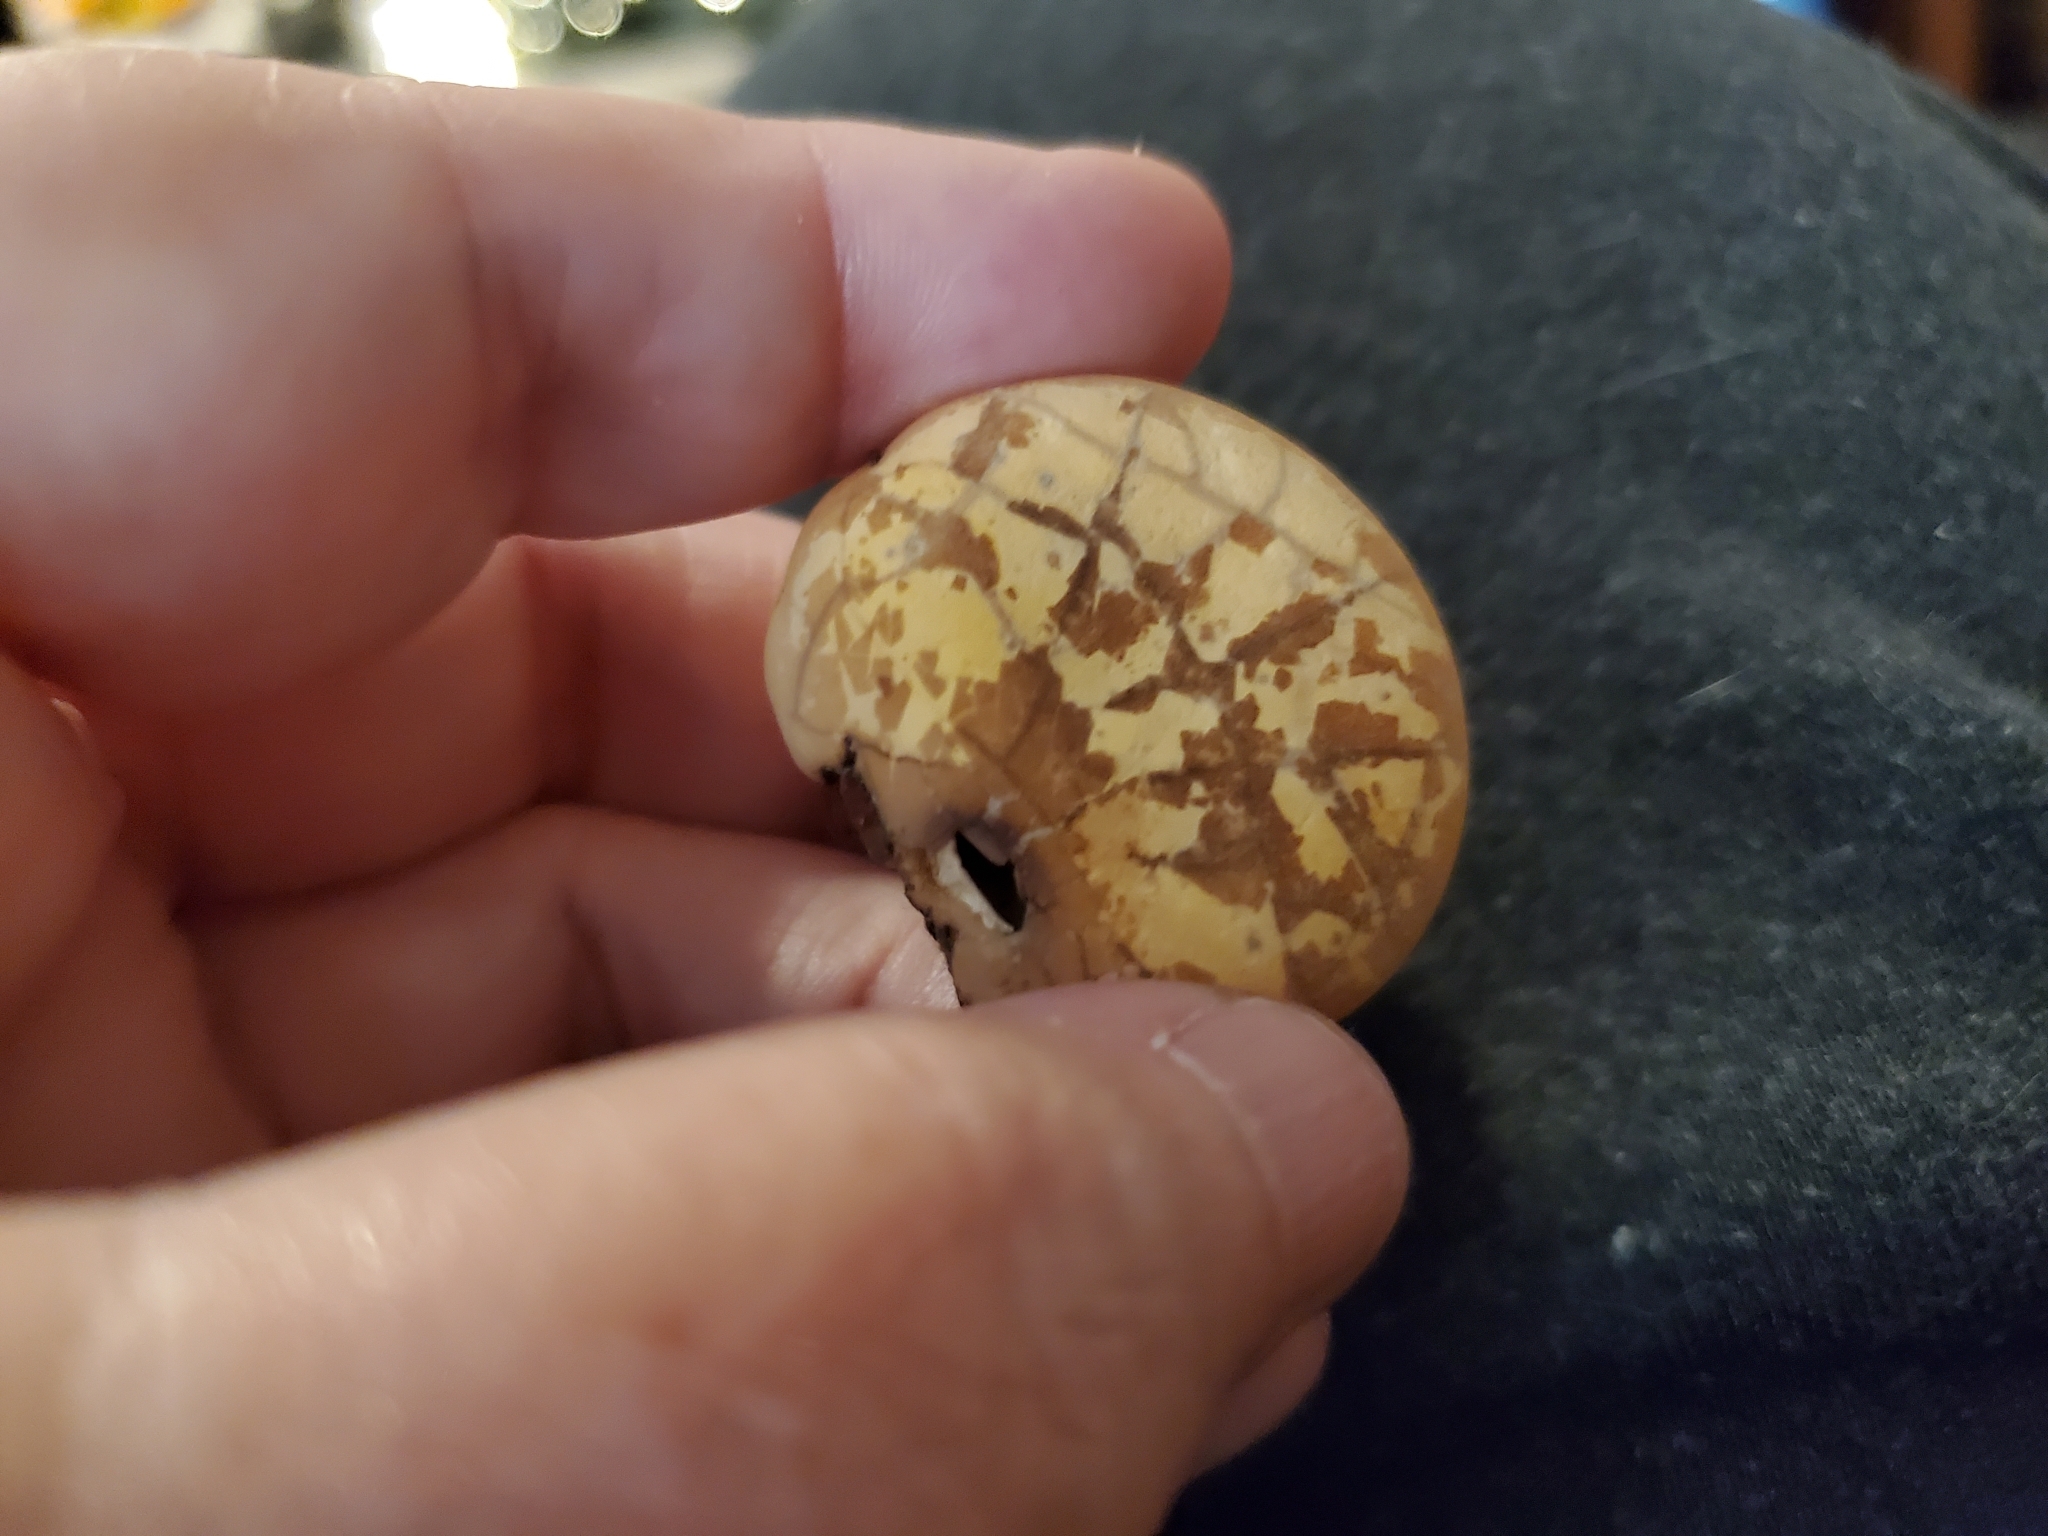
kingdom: Fungi
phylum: Basidiomycota
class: Agaricomycetes
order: Polyporales
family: Polyporaceae
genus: Cryptoporus
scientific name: Cryptoporus volvatus
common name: Veiled polypore
